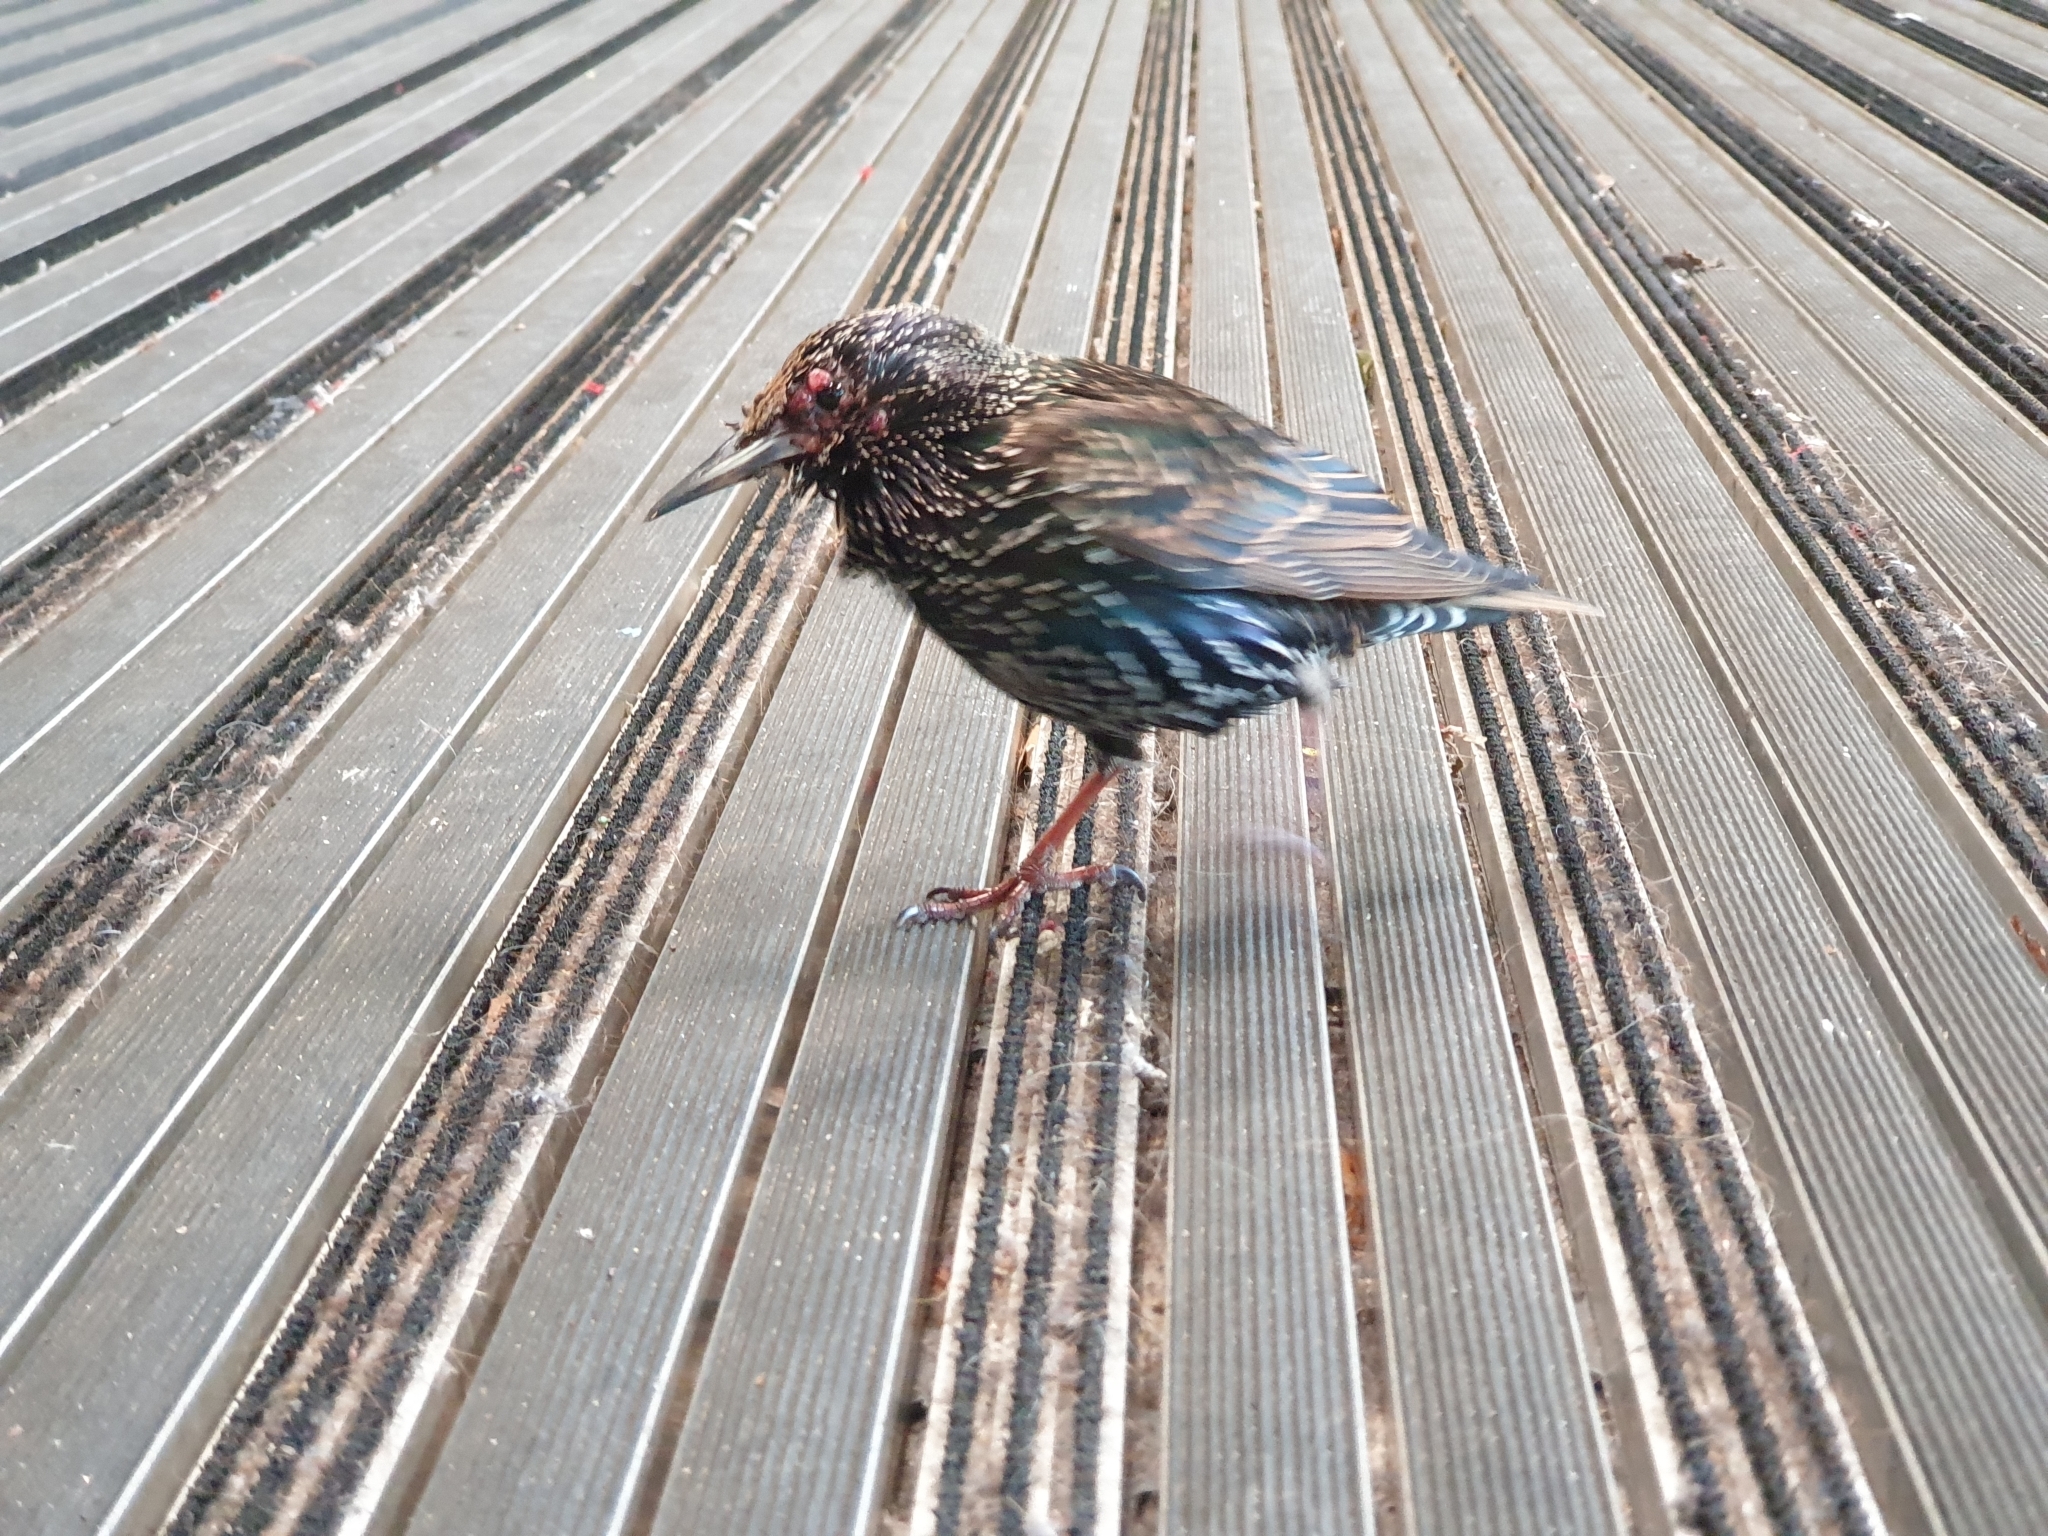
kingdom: Viruses
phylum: Nucleocytoviricota
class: Pokkesviricetes
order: Chitovirales
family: Poxviridae
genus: Avipoxvirus
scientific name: Avipoxvirus Starlingpox virus
